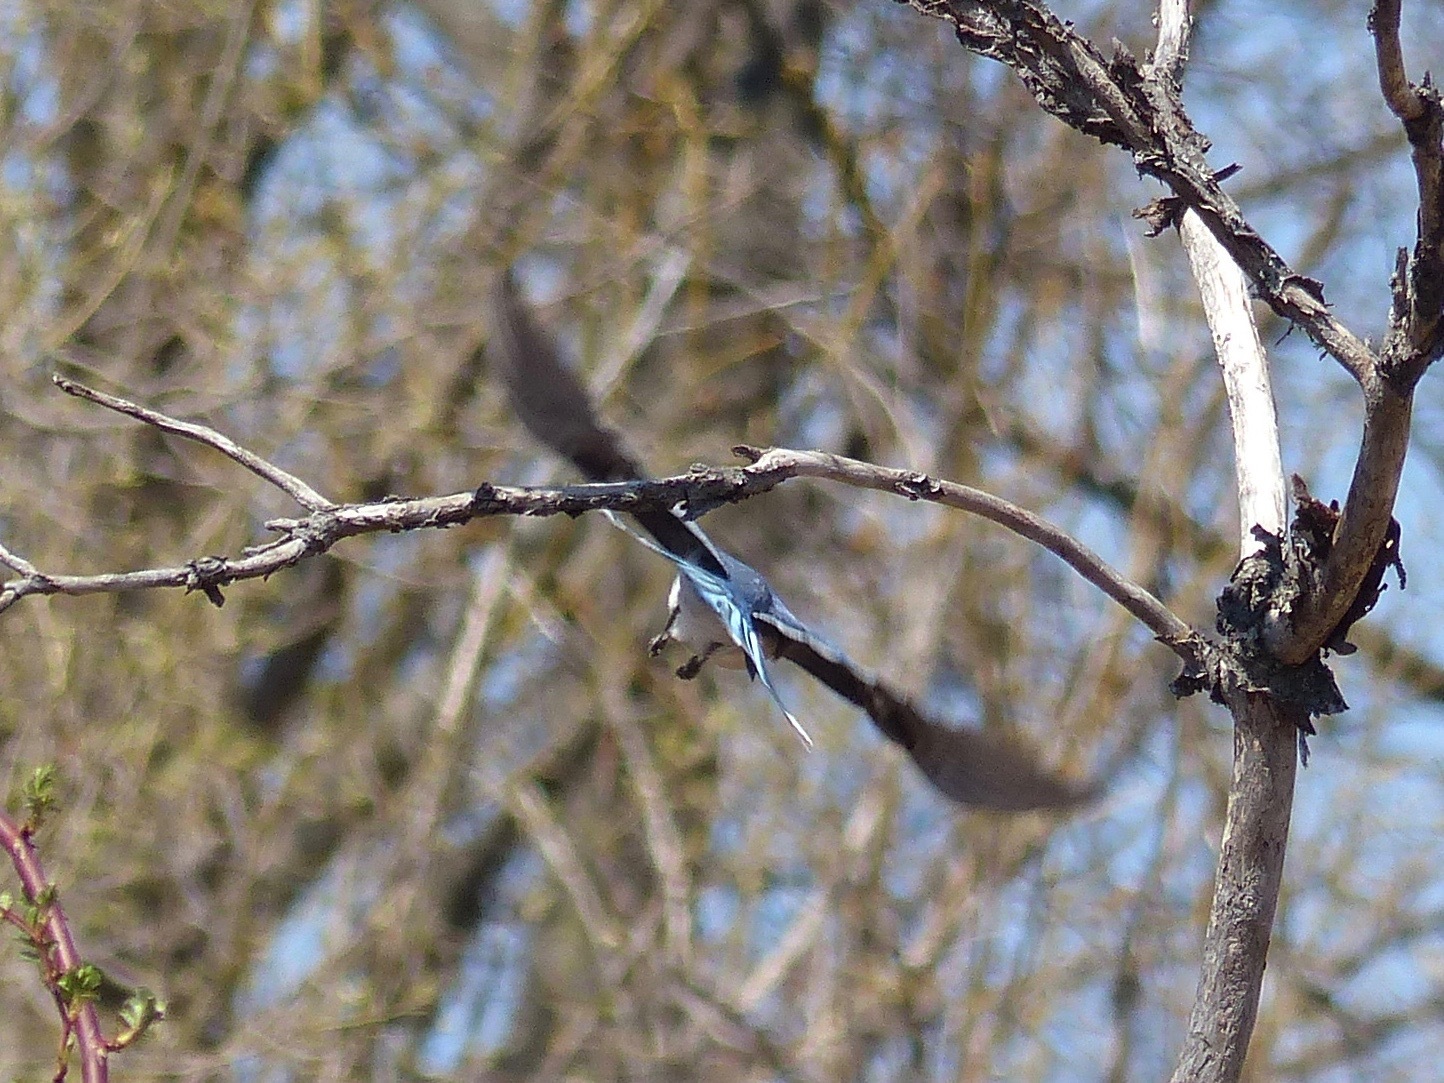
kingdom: Animalia
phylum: Chordata
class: Aves
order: Passeriformes
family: Corvidae
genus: Cyanocitta
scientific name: Cyanocitta cristata
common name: Blue jay
